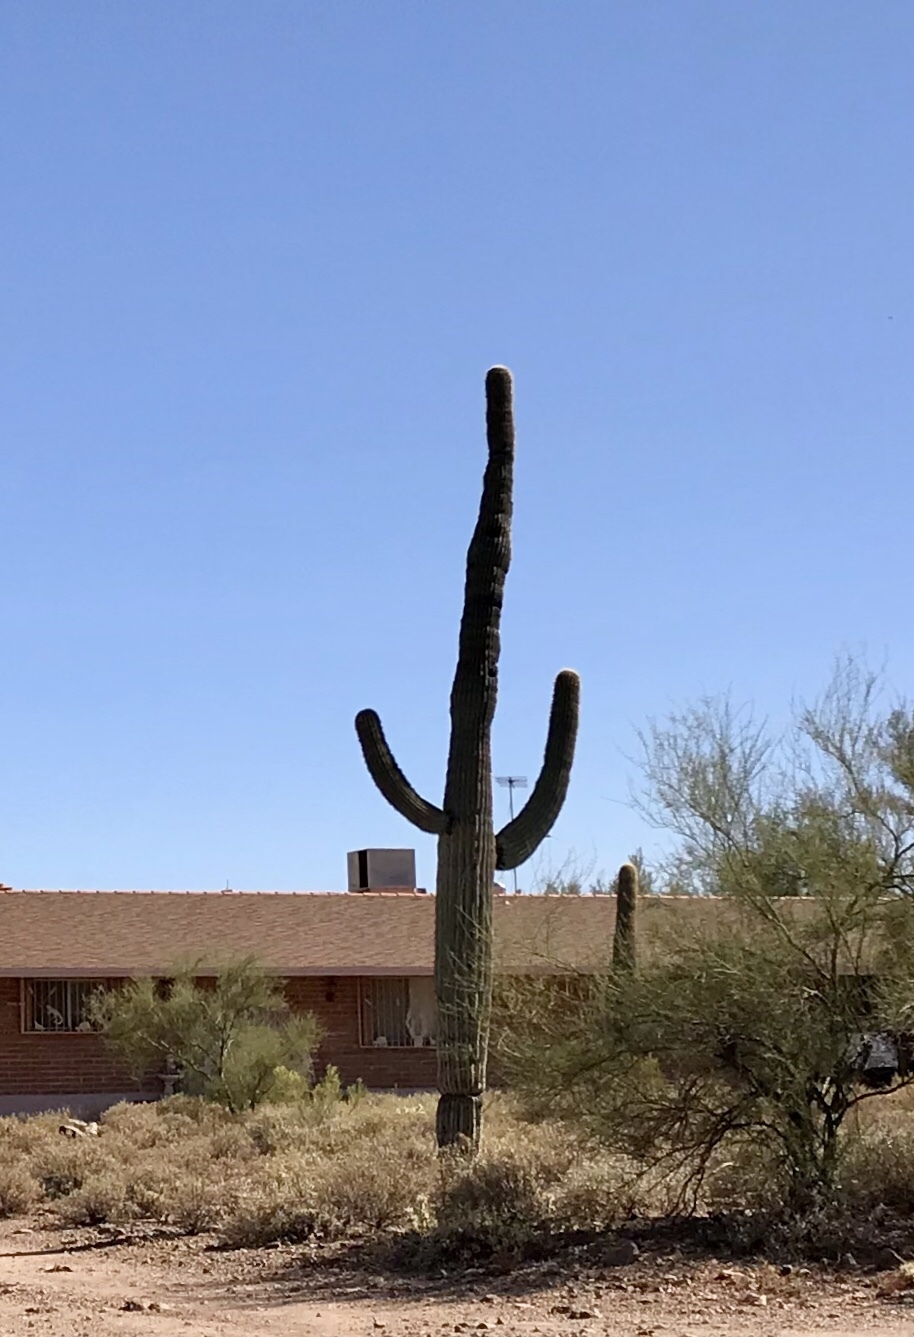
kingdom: Plantae
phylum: Tracheophyta
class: Magnoliopsida
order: Caryophyllales
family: Cactaceae
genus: Carnegiea
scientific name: Carnegiea gigantea
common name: Saguaro
